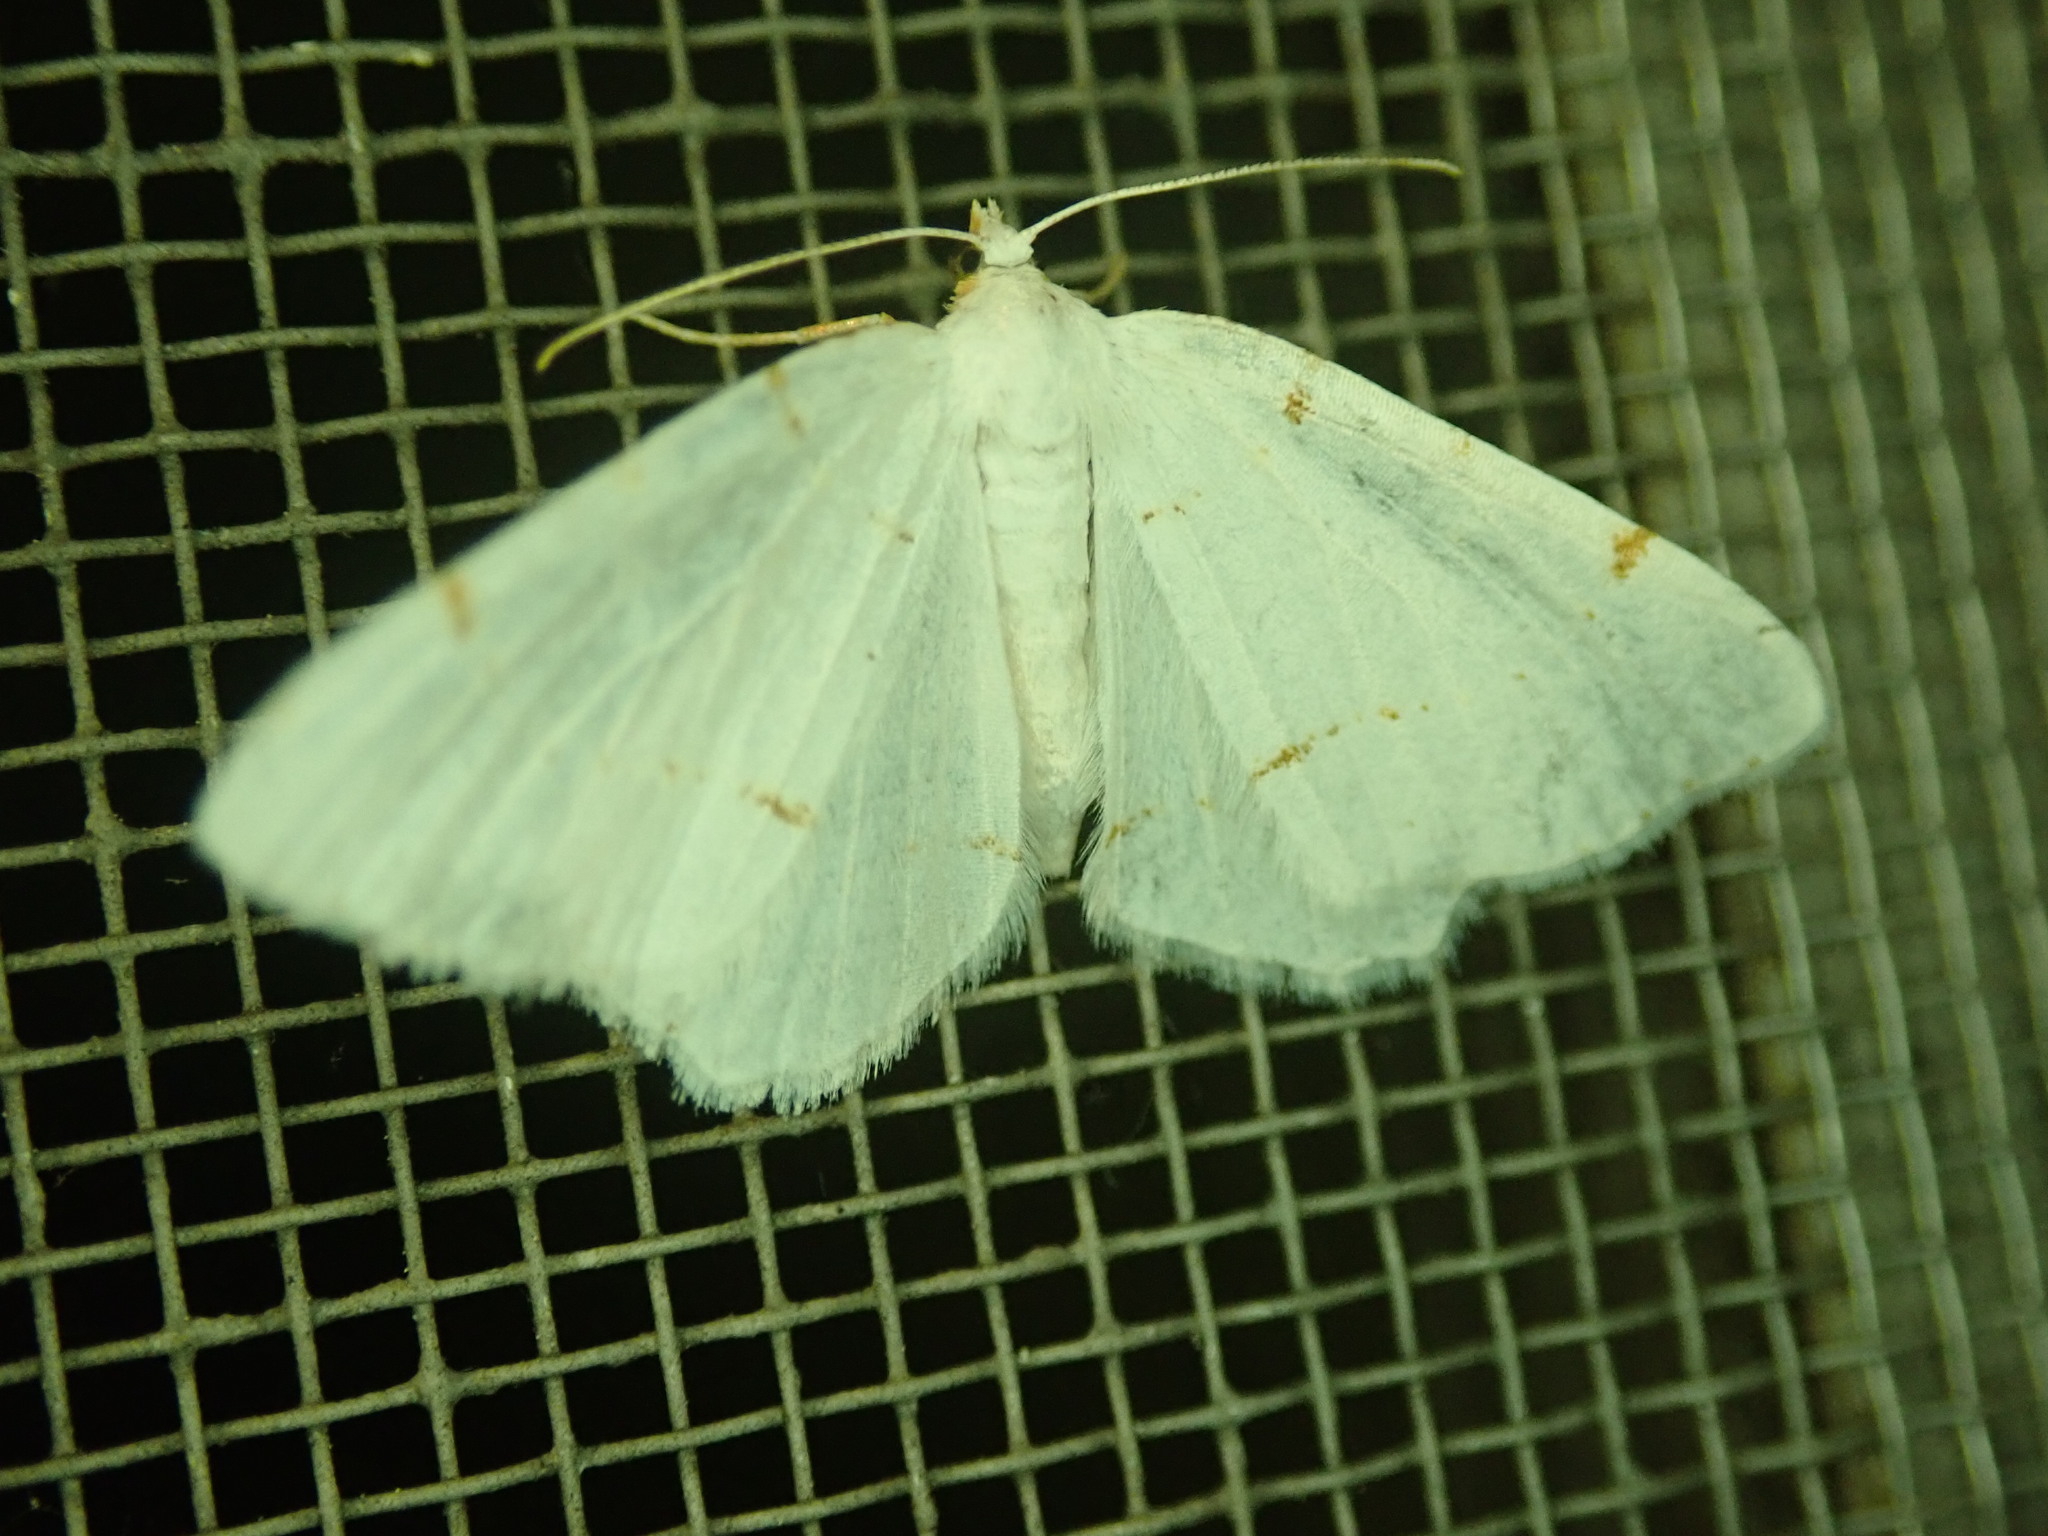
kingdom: Animalia
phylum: Arthropoda
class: Insecta
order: Lepidoptera
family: Geometridae
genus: Macaria
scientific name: Macaria pustularia
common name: Lesser maple spanworm moth
